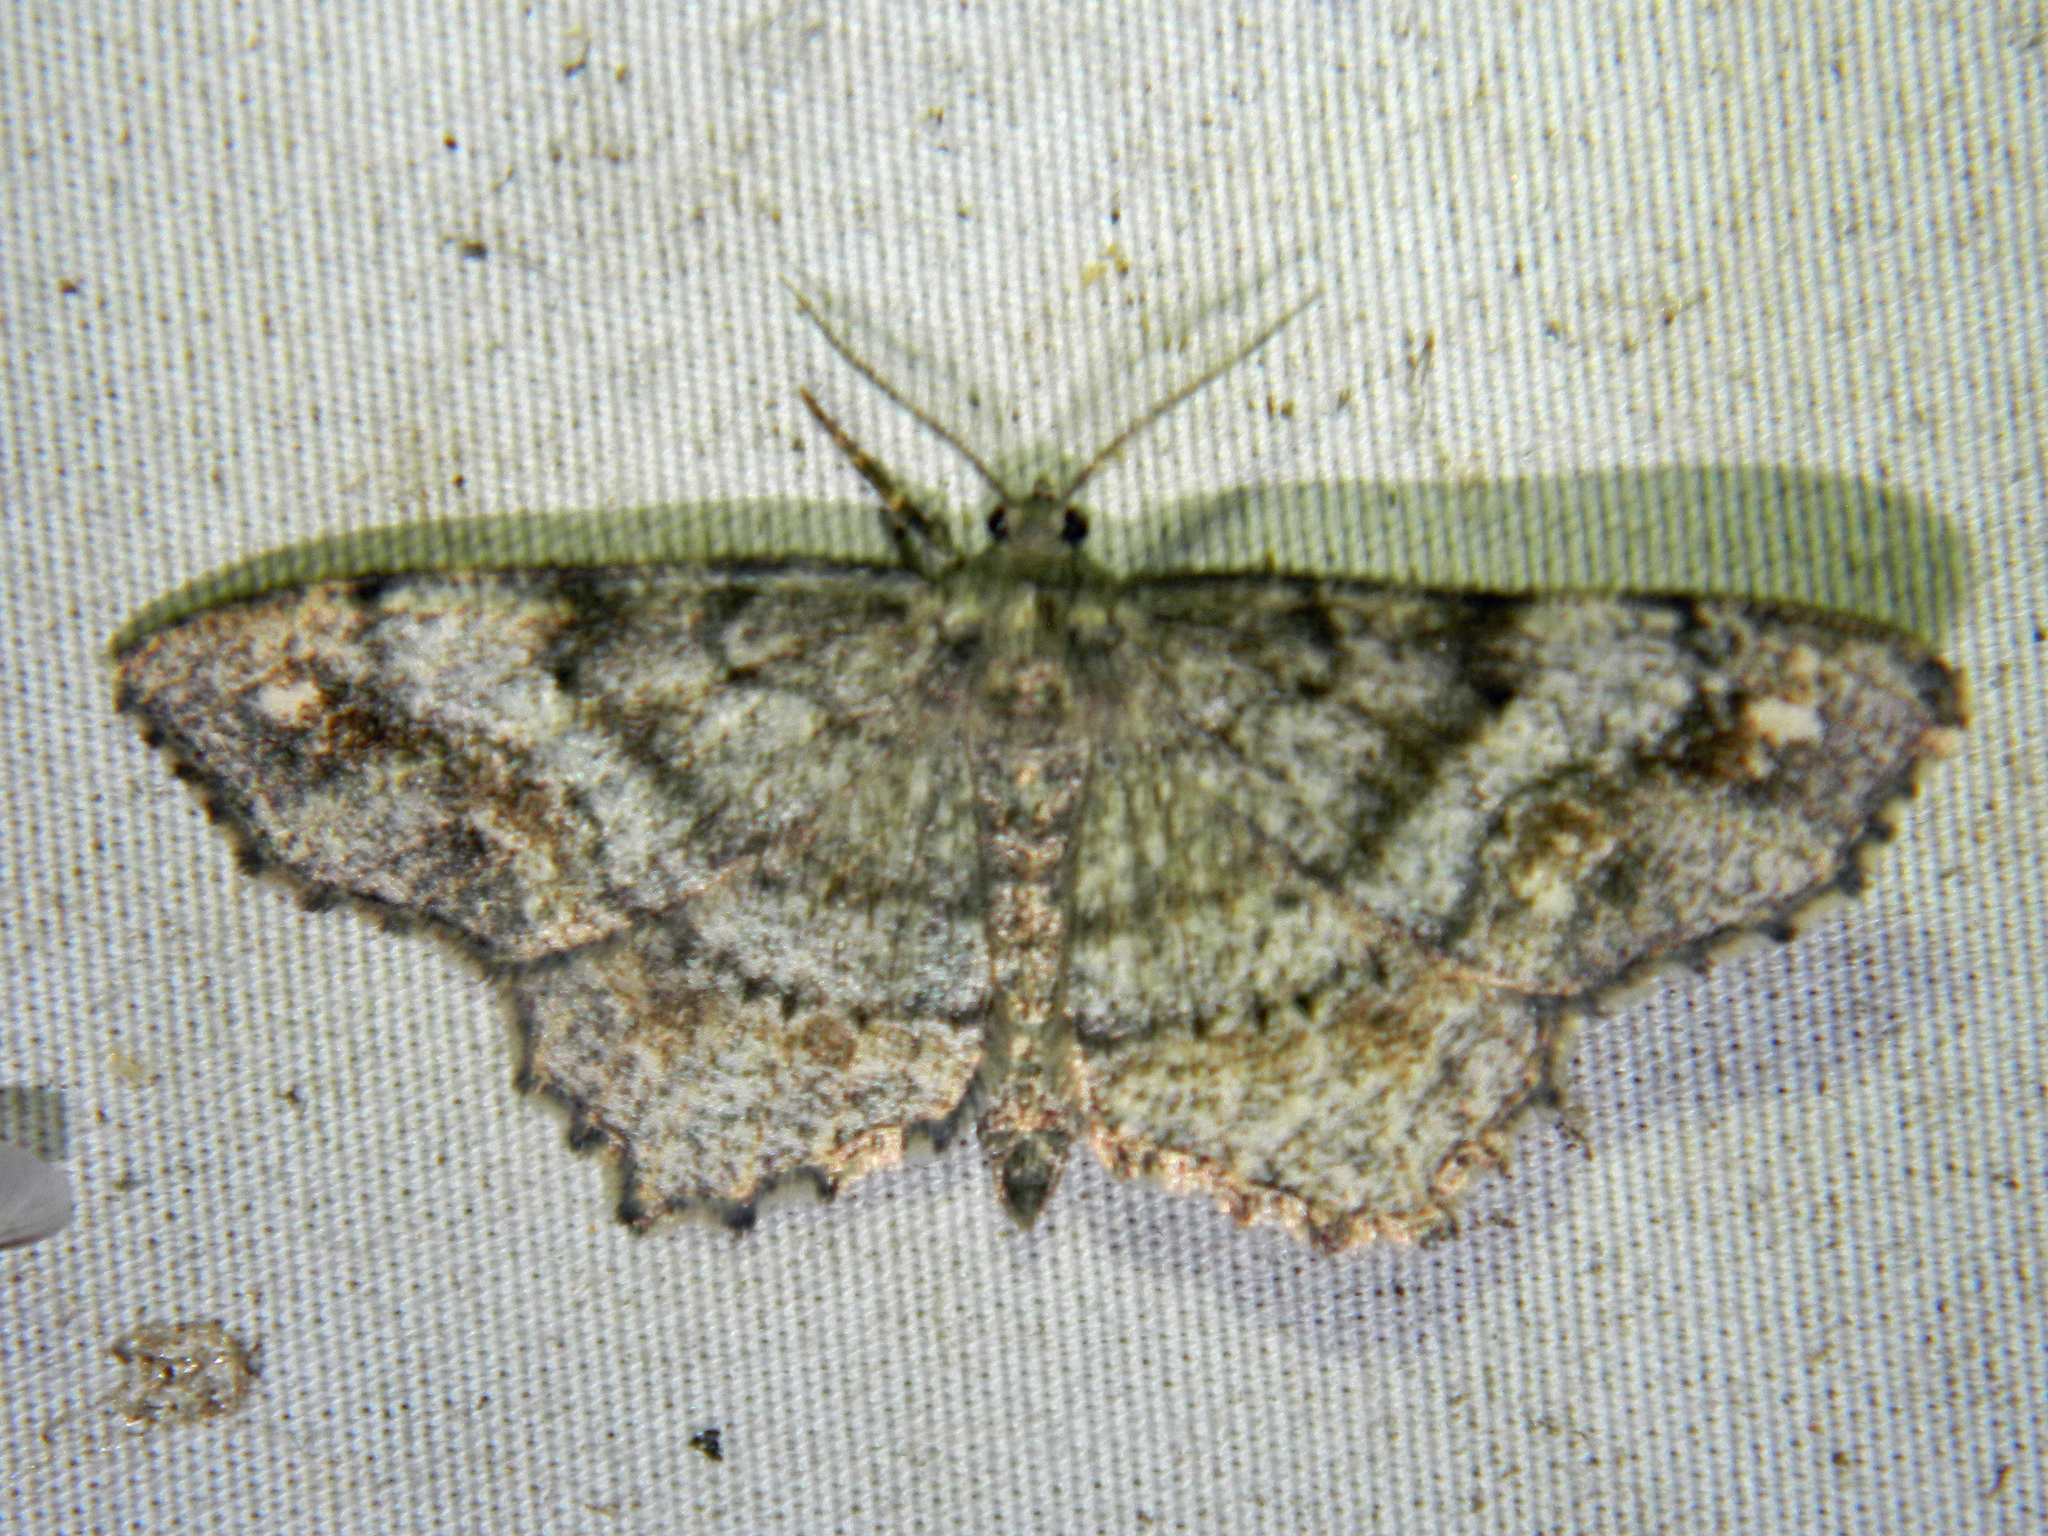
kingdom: Animalia
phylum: Arthropoda
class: Insecta
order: Lepidoptera
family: Geometridae
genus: Hypagyrtis
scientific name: Hypagyrtis unipunctata
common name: One-spotted variant
